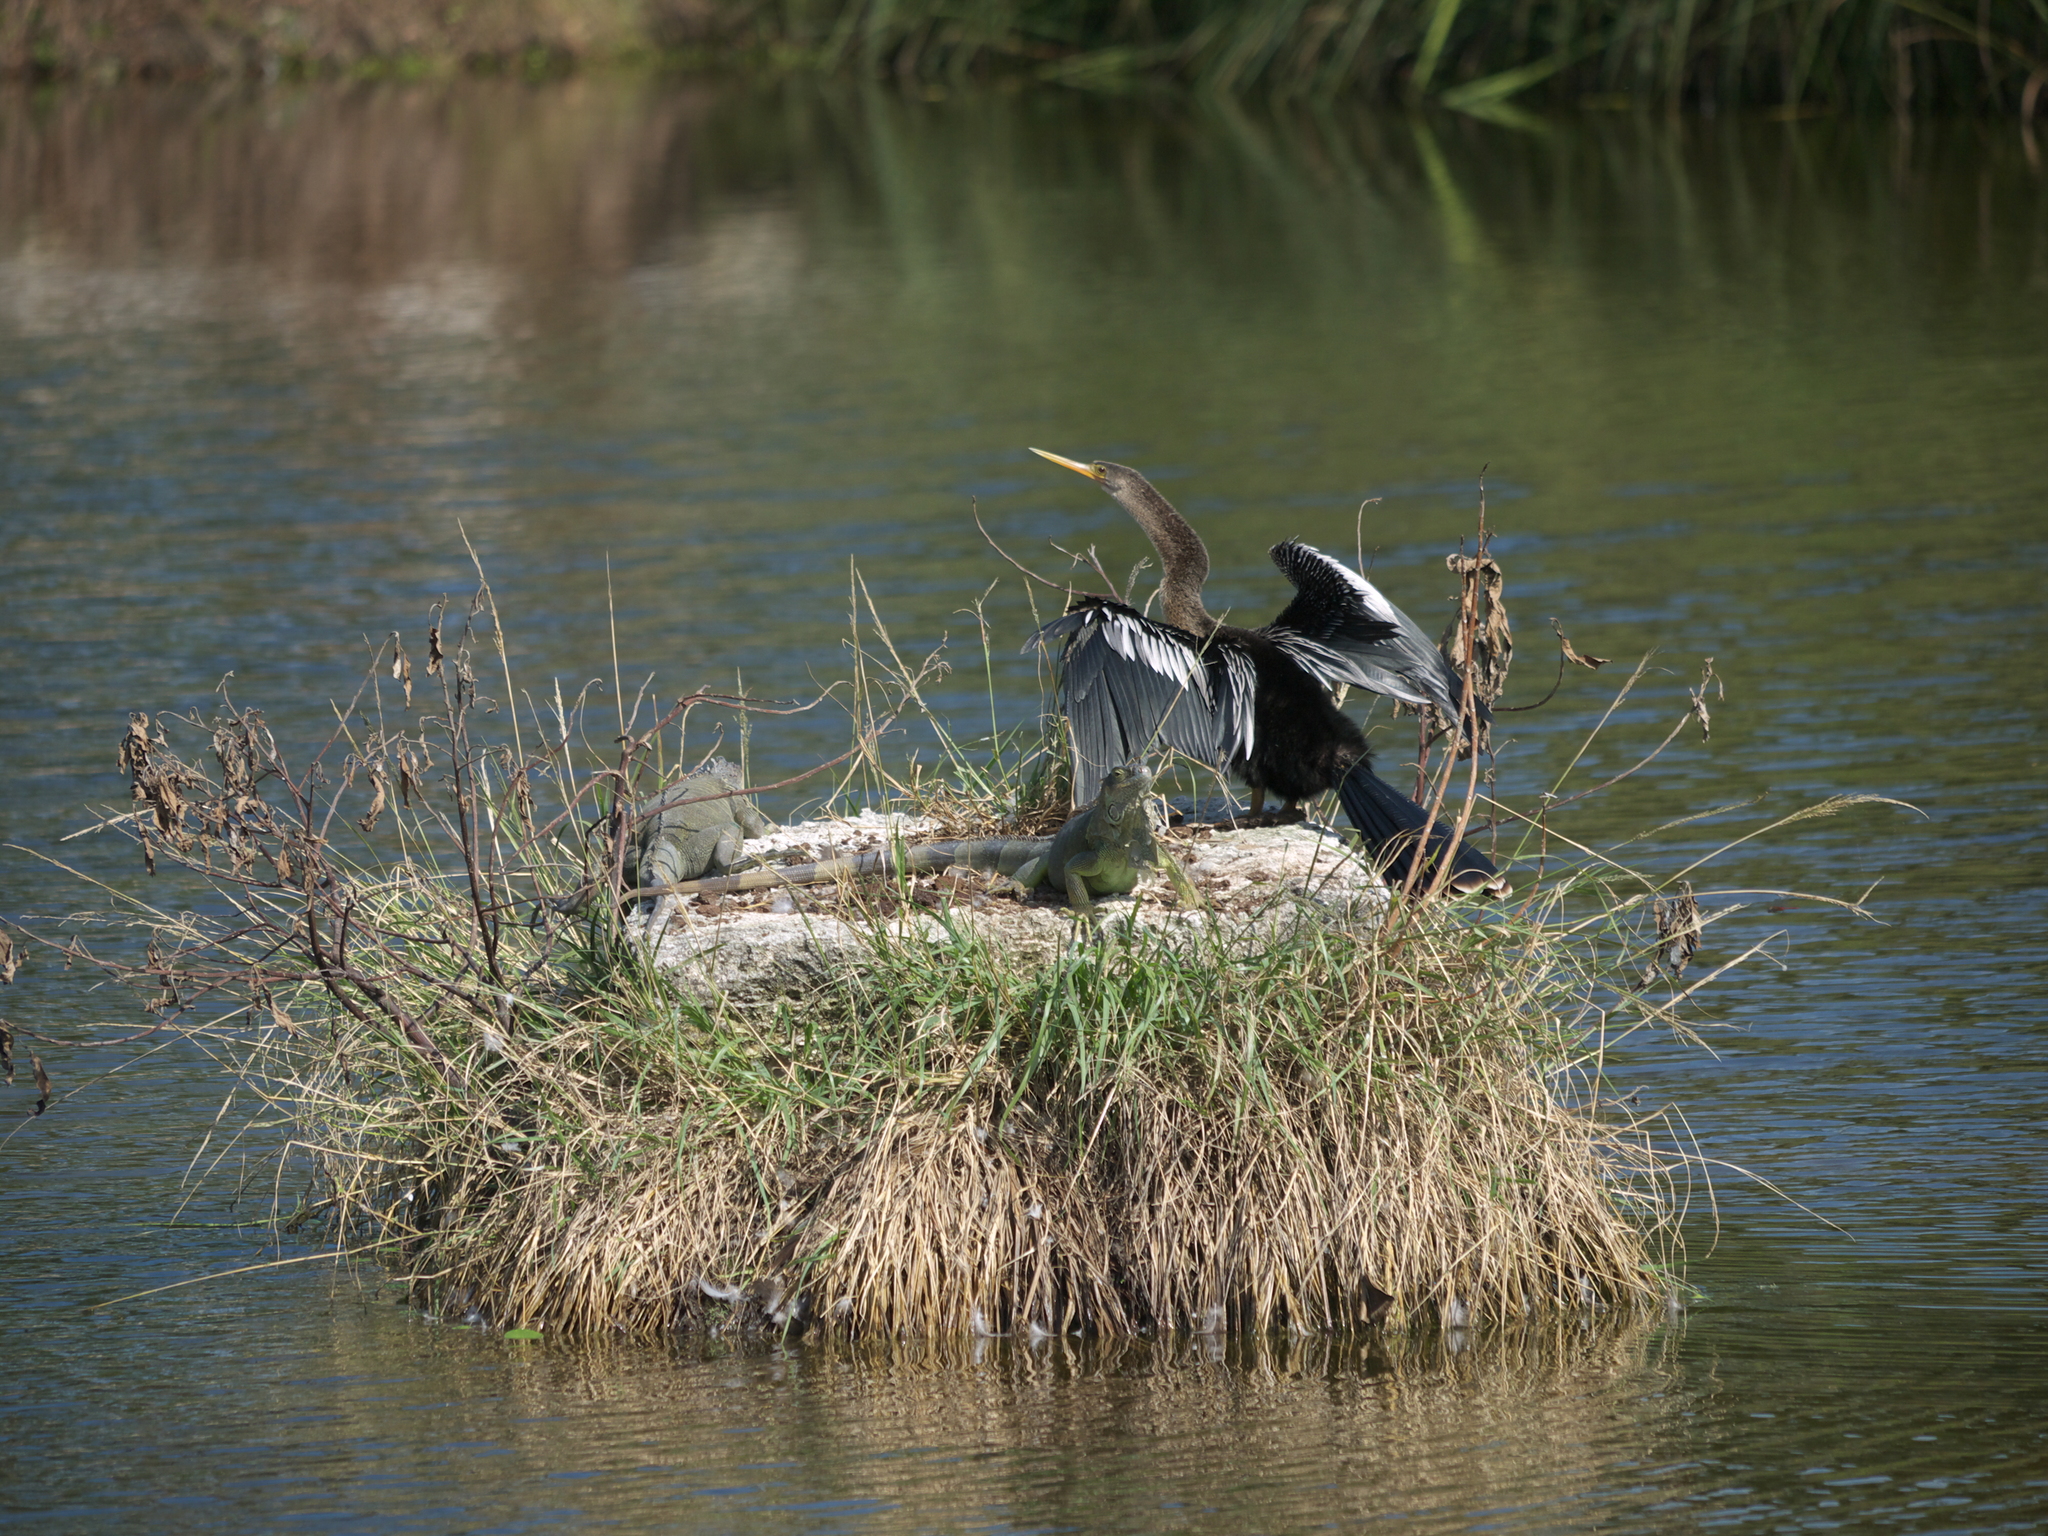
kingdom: Animalia
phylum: Chordata
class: Aves
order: Suliformes
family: Anhingidae
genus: Anhinga
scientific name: Anhinga anhinga
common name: Anhinga
